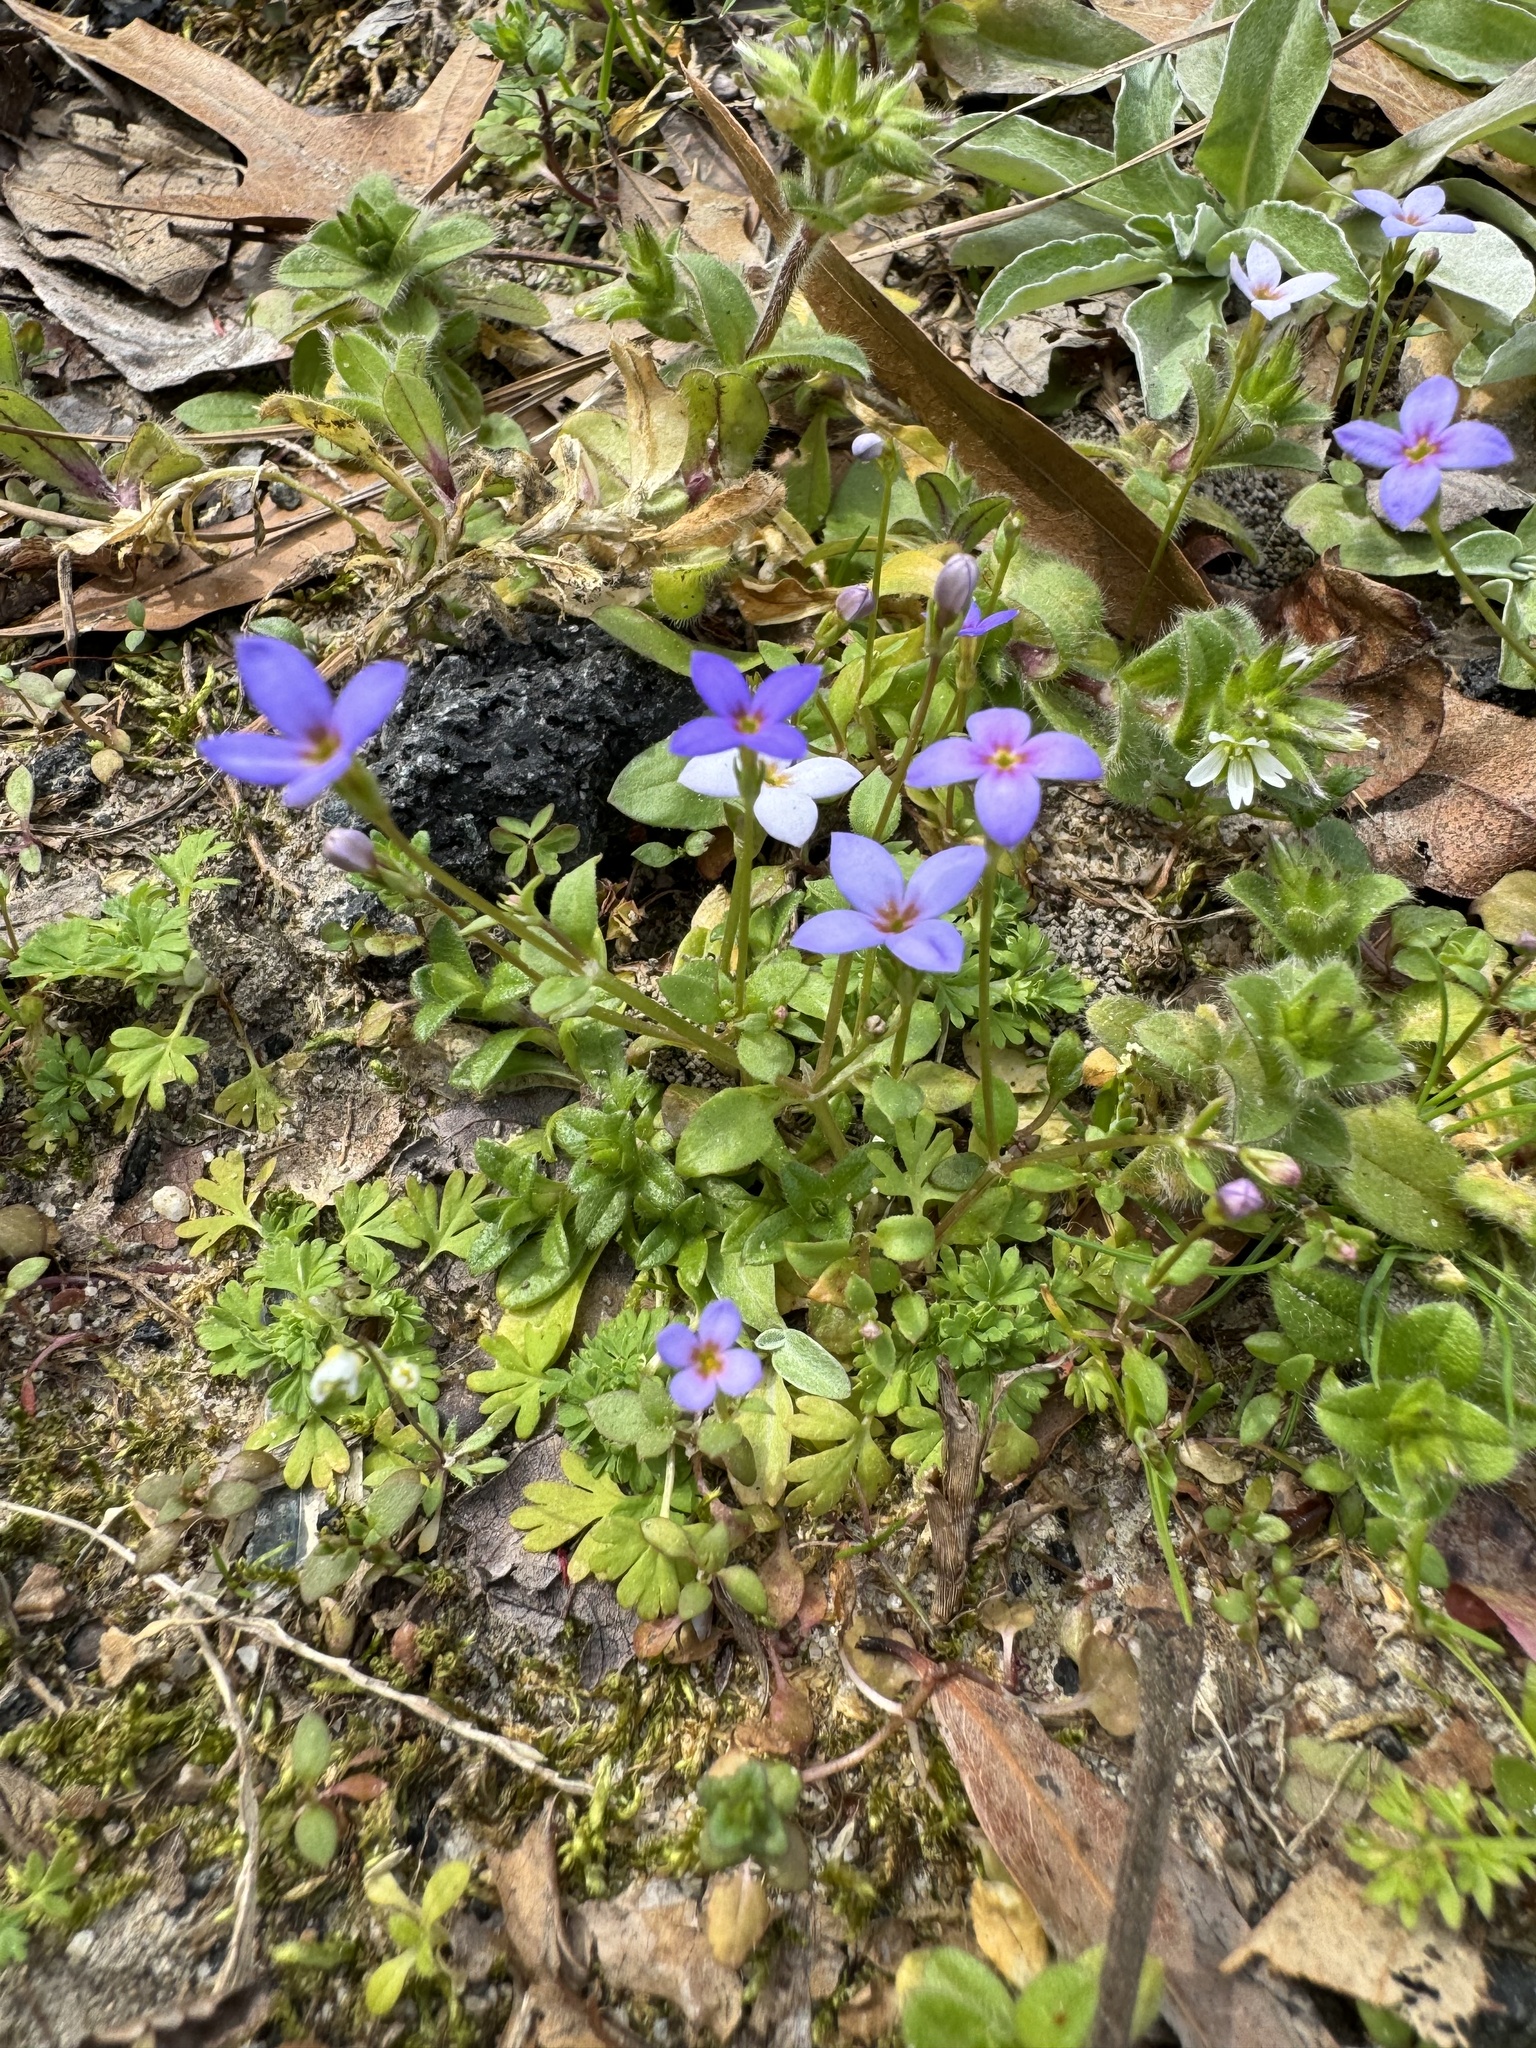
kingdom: Plantae
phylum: Tracheophyta
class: Magnoliopsida
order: Gentianales
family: Rubiaceae
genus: Houstonia
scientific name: Houstonia pusilla
